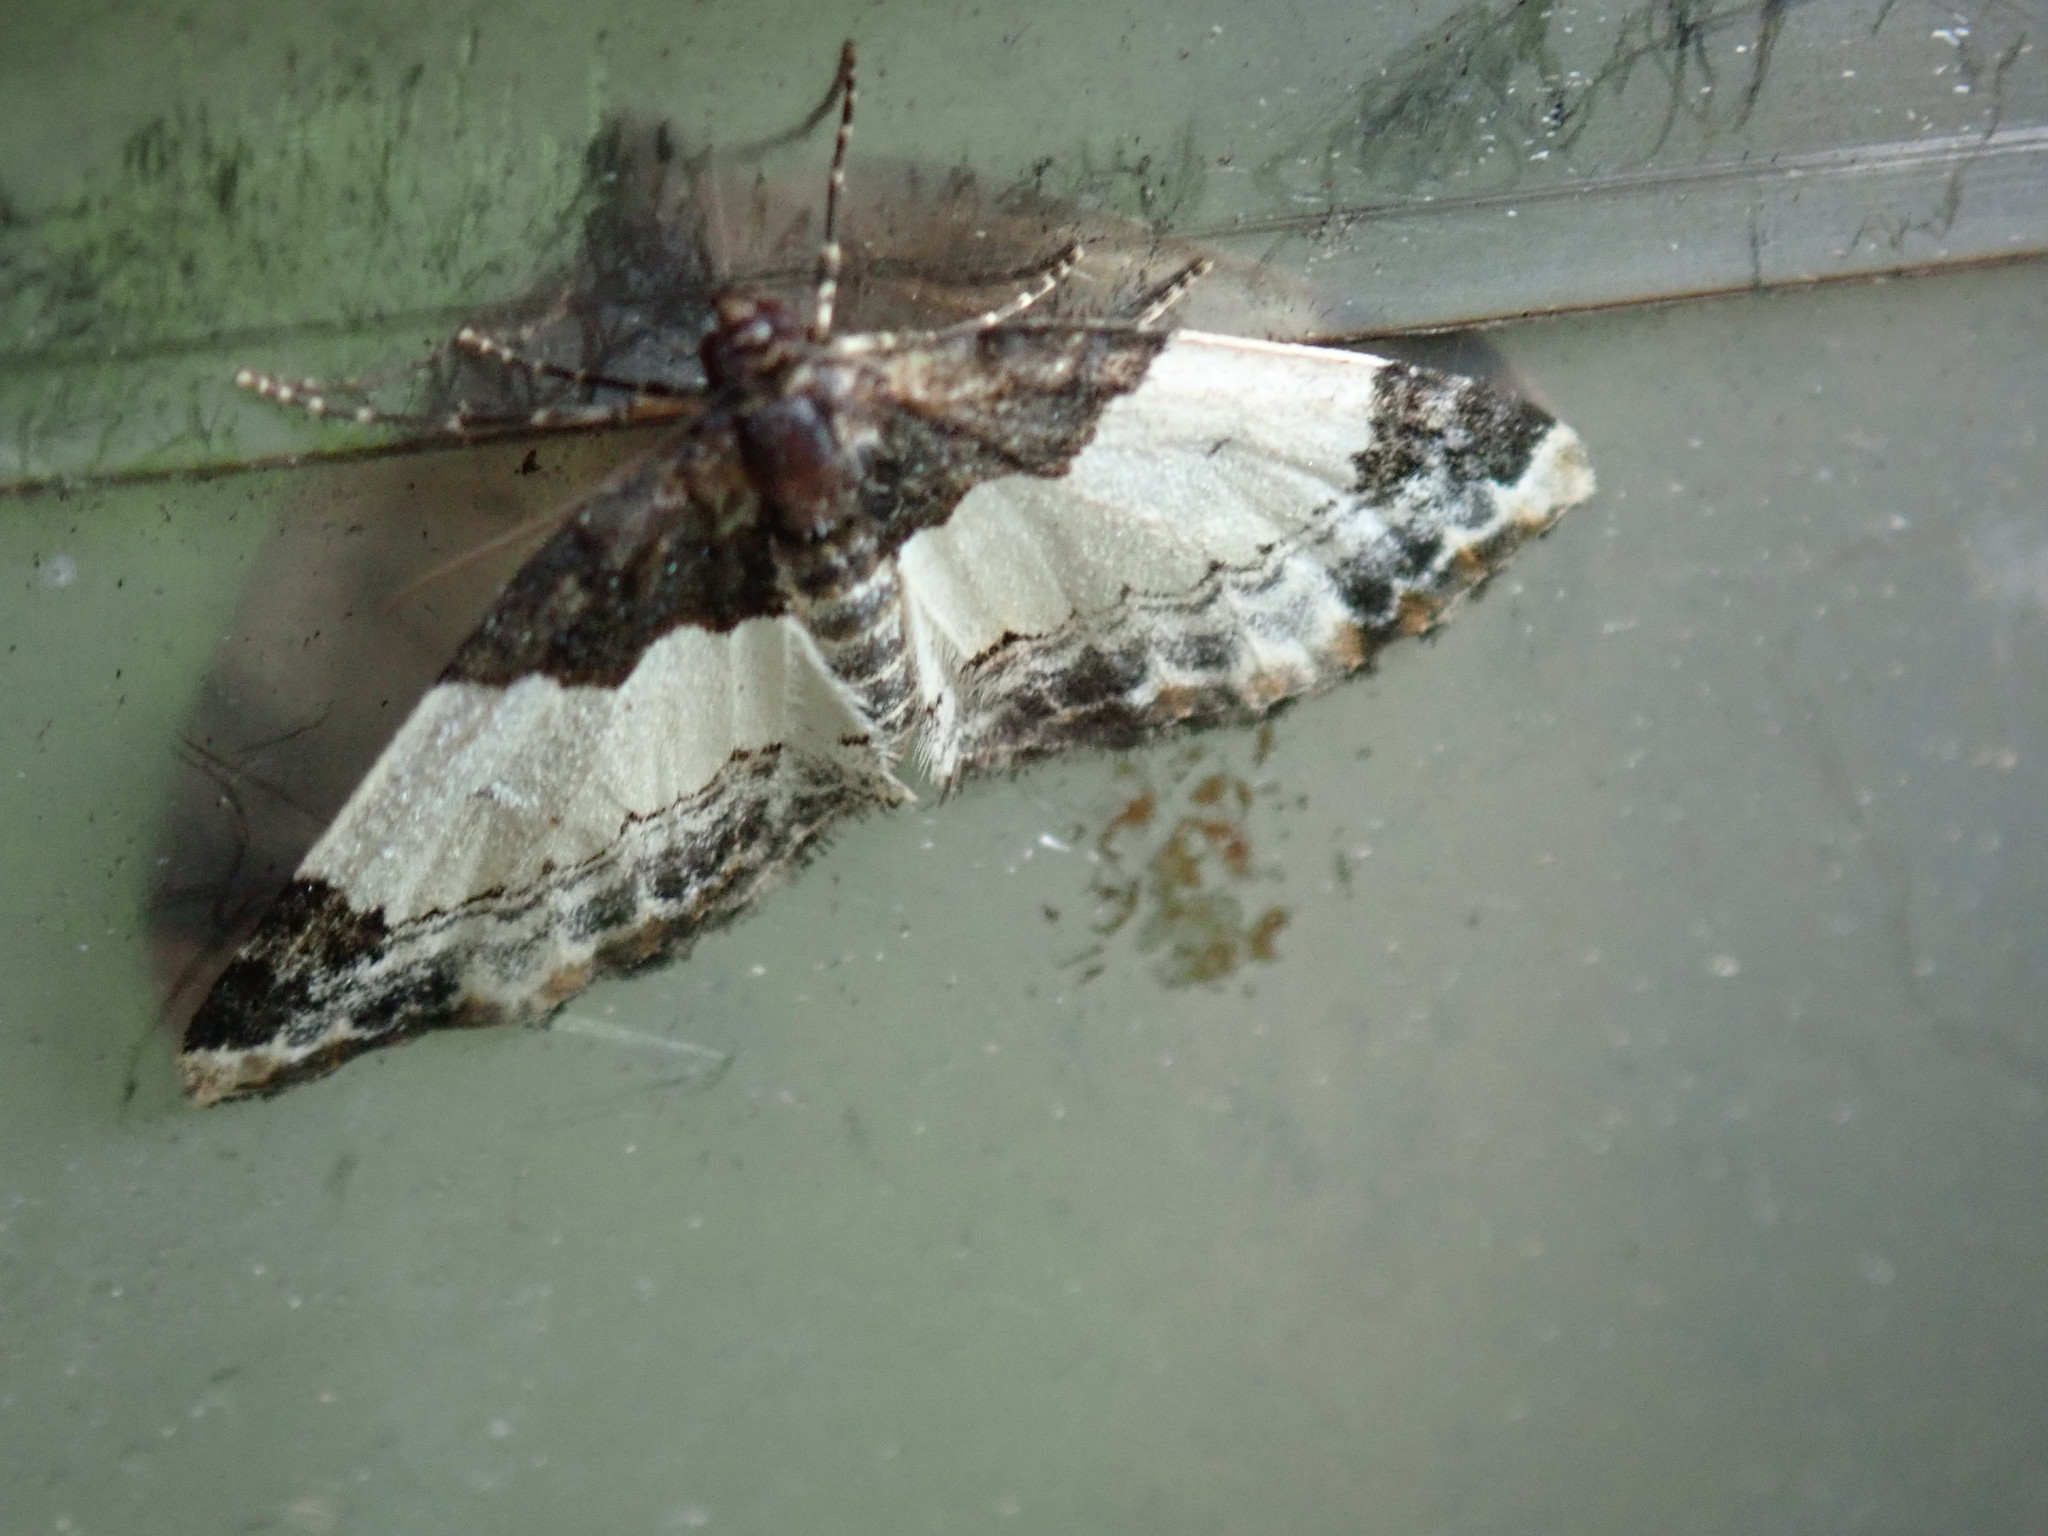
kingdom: Animalia
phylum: Arthropoda
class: Insecta
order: Lepidoptera
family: Geometridae
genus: Mesoleuca
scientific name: Mesoleuca ruficillata
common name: White-ribboned carpet moth
